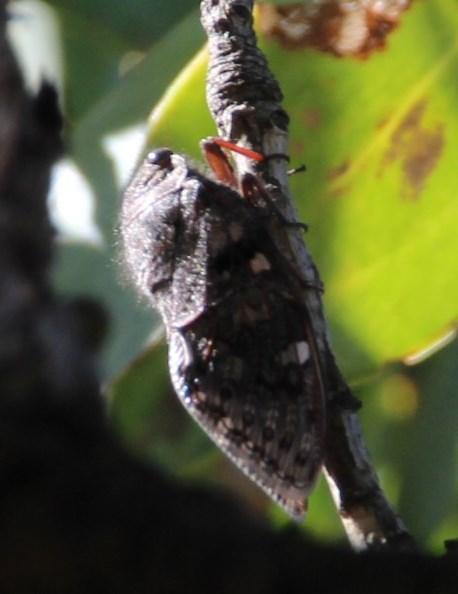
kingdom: Animalia
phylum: Arthropoda
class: Insecta
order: Hemiptera
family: Cicadidae
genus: Capcicada
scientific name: Capcicada absimilis
